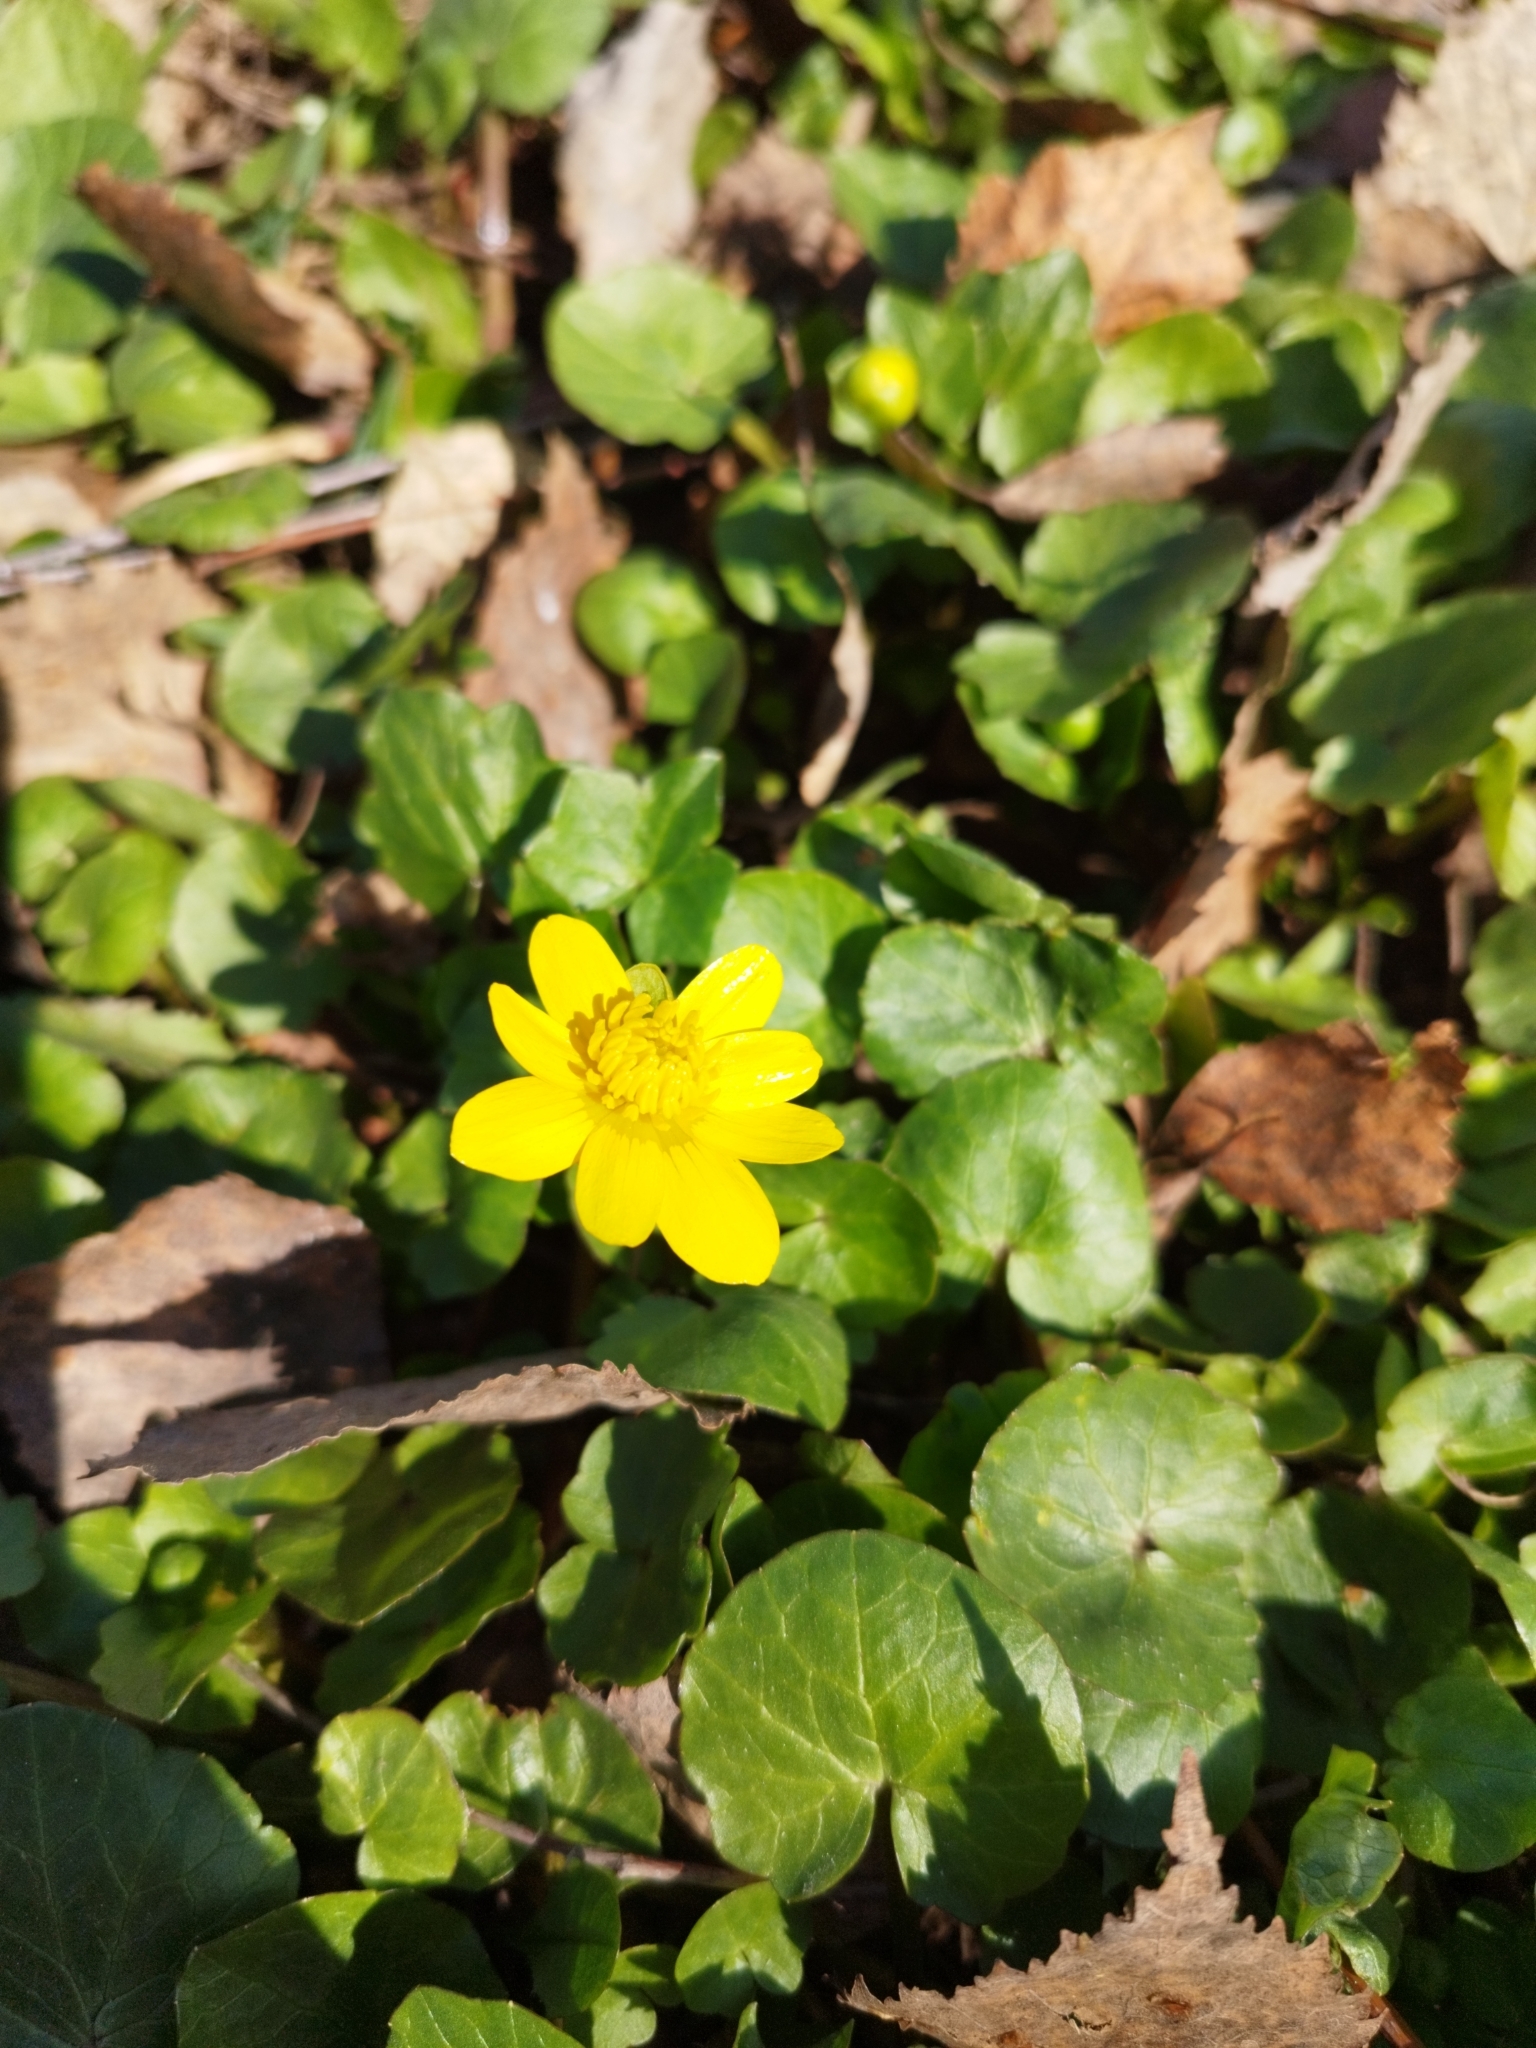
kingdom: Plantae
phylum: Tracheophyta
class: Magnoliopsida
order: Ranunculales
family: Ranunculaceae
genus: Ficaria
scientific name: Ficaria verna
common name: Lesser celandine
